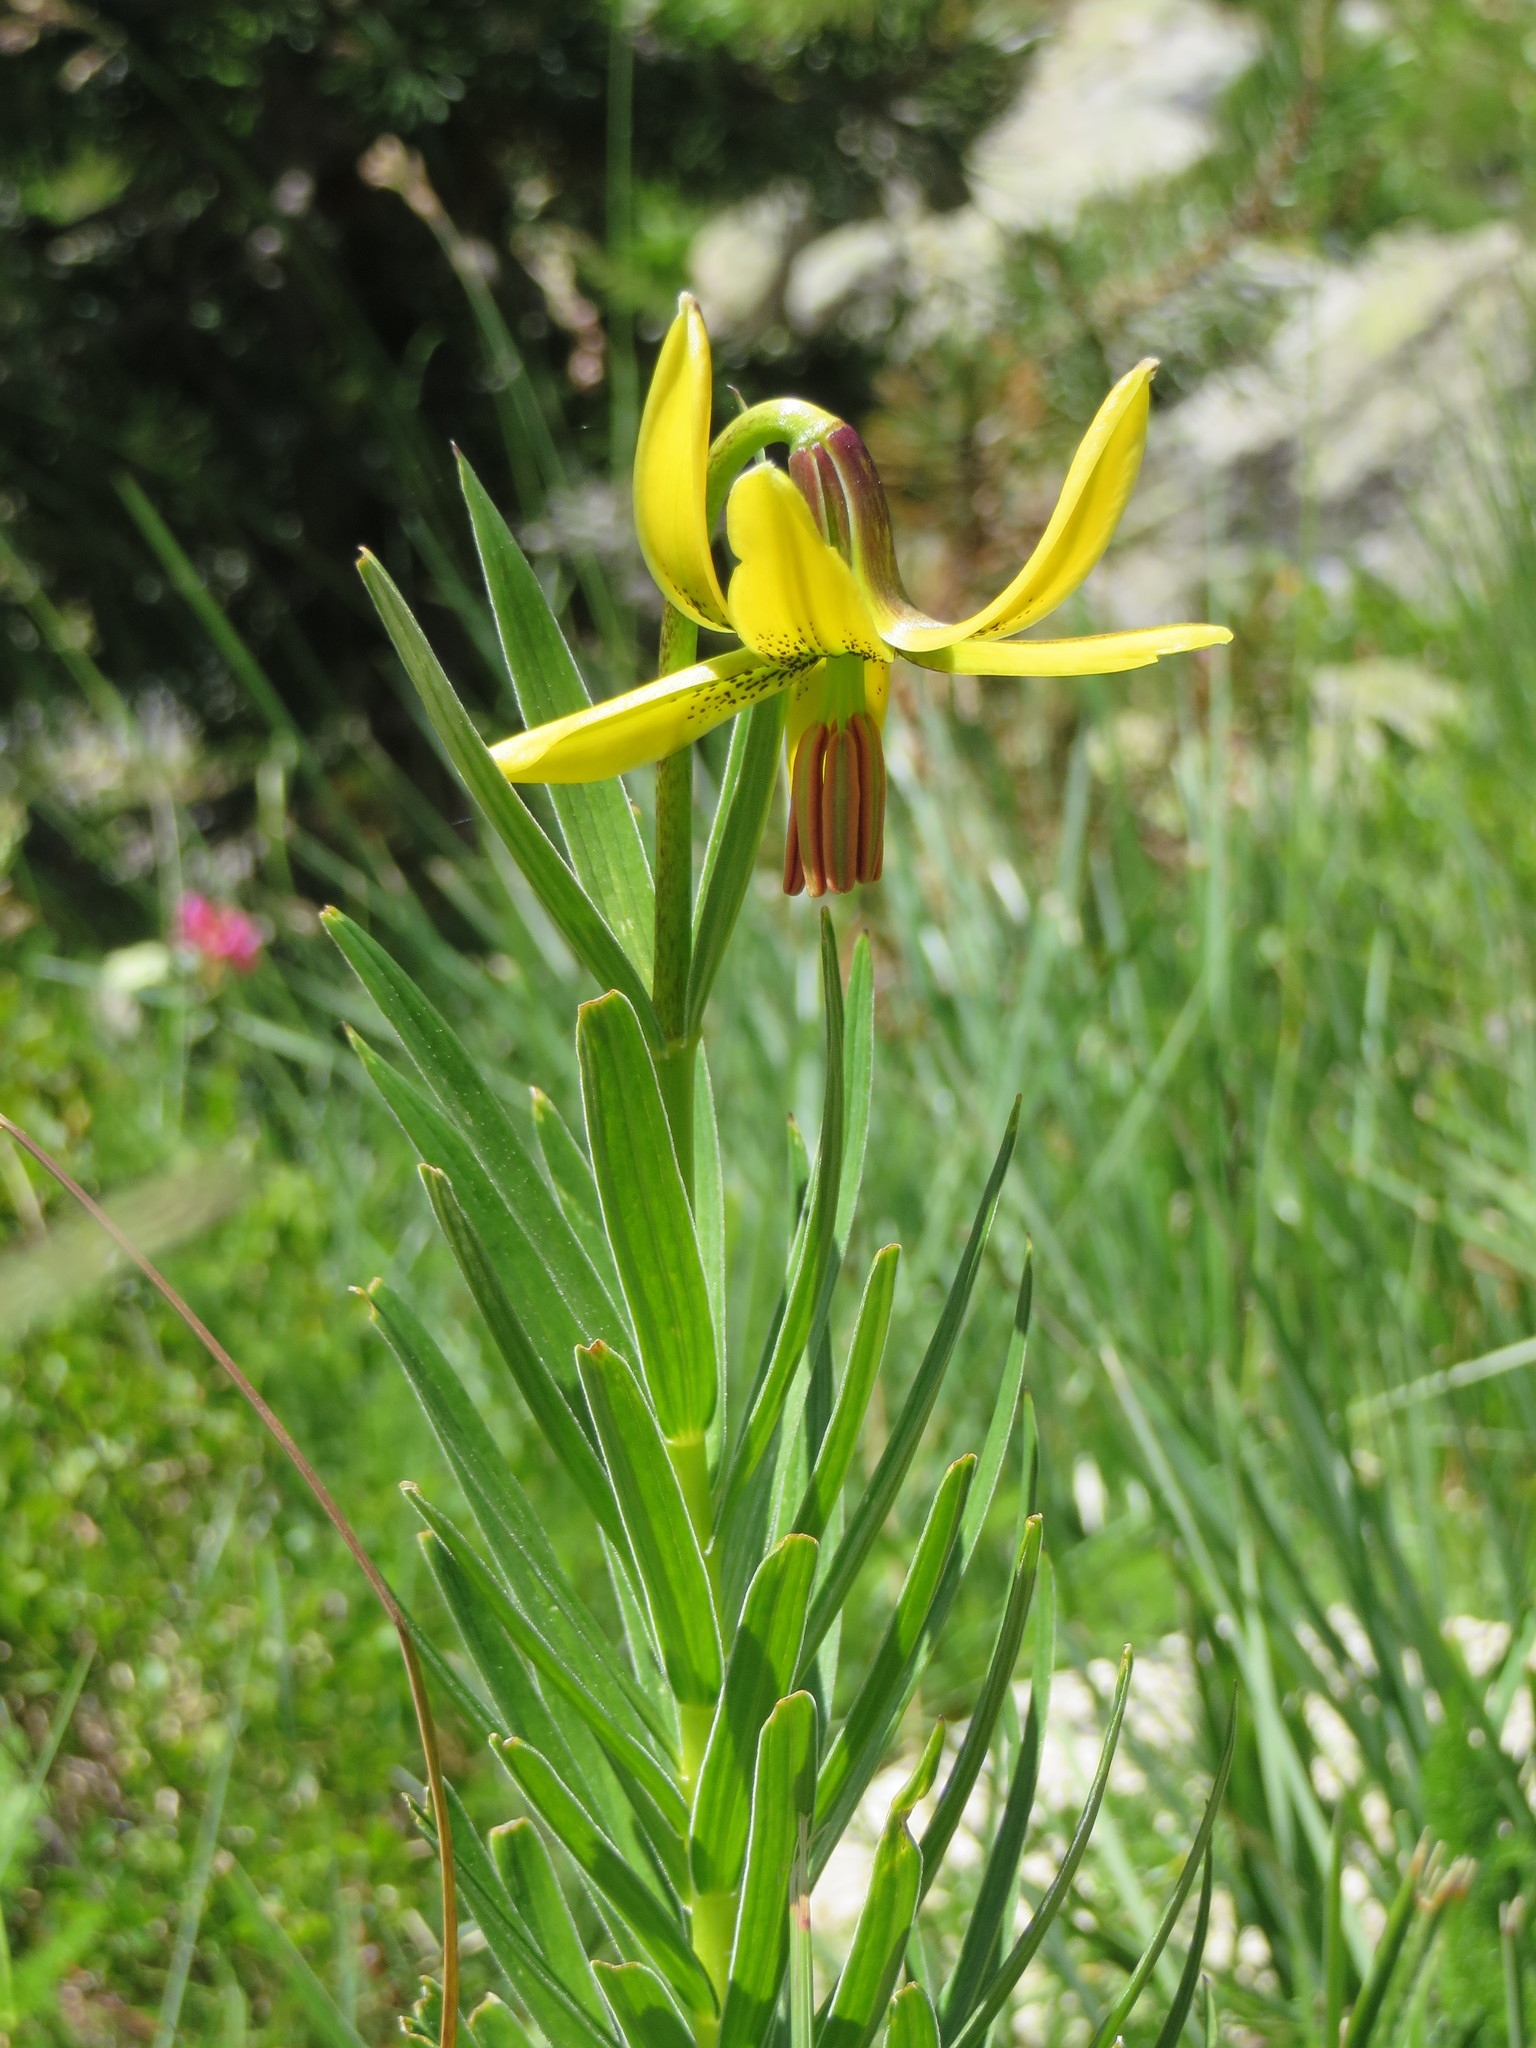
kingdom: Plantae
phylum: Tracheophyta
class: Liliopsida
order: Liliales
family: Liliaceae
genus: Lilium
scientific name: Lilium pyrenaicum
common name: Pyrenean lily
